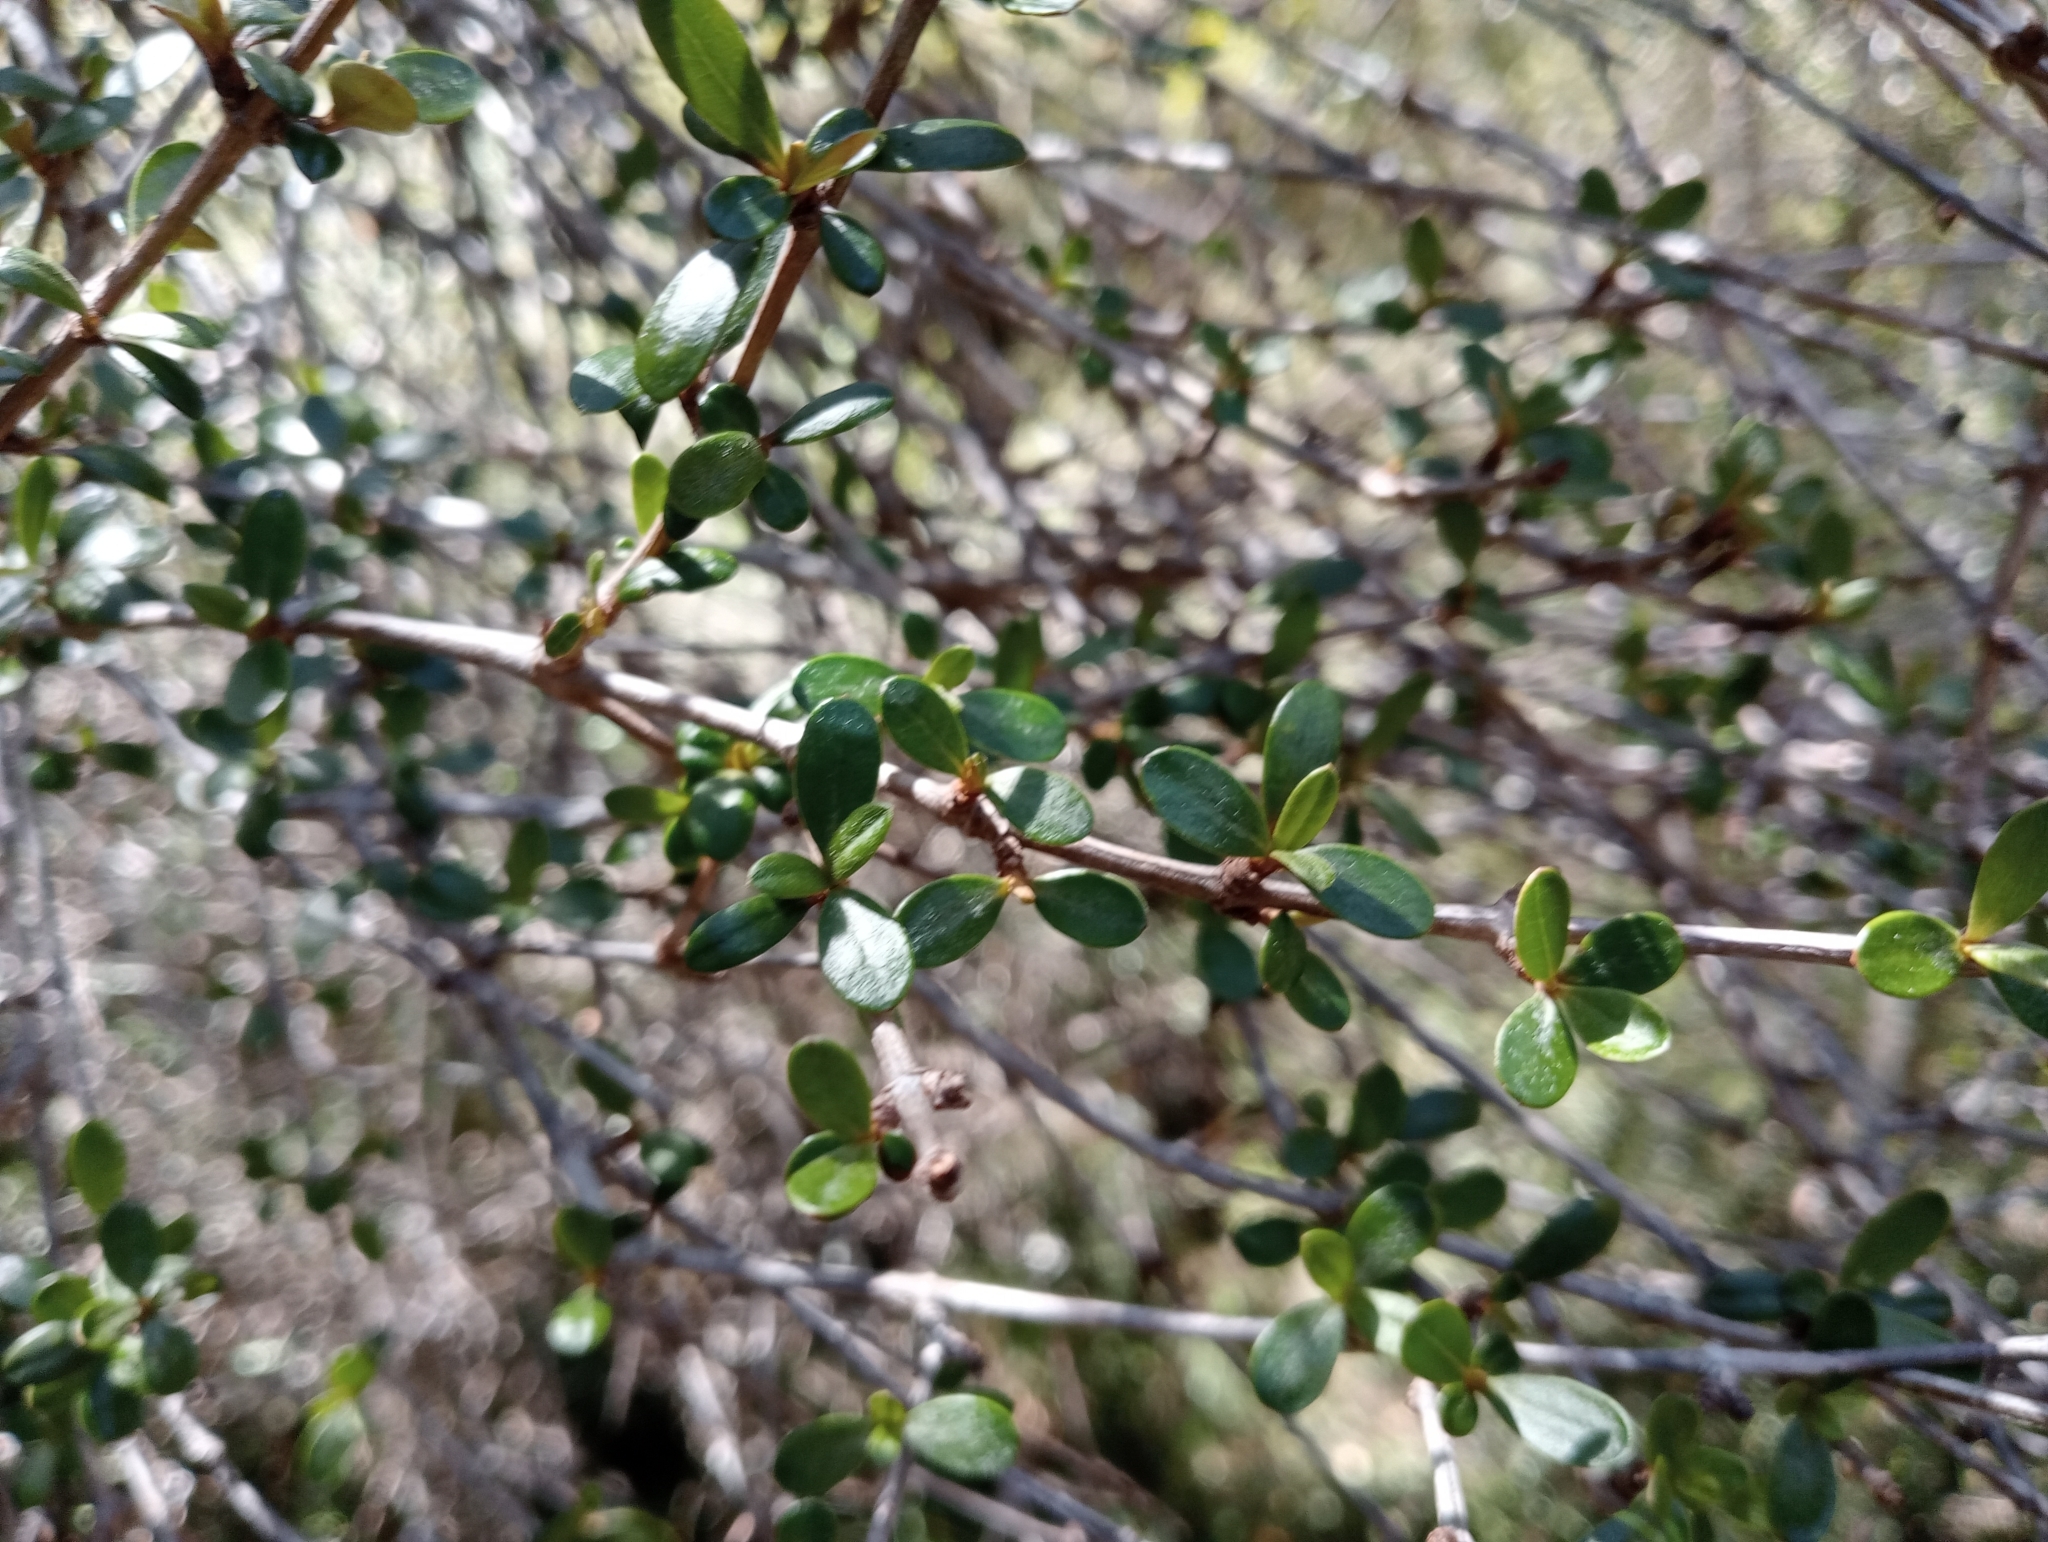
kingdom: Plantae
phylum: Tracheophyta
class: Magnoliopsida
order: Asterales
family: Asteraceae
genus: Olearia
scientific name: Olearia laxiflora
